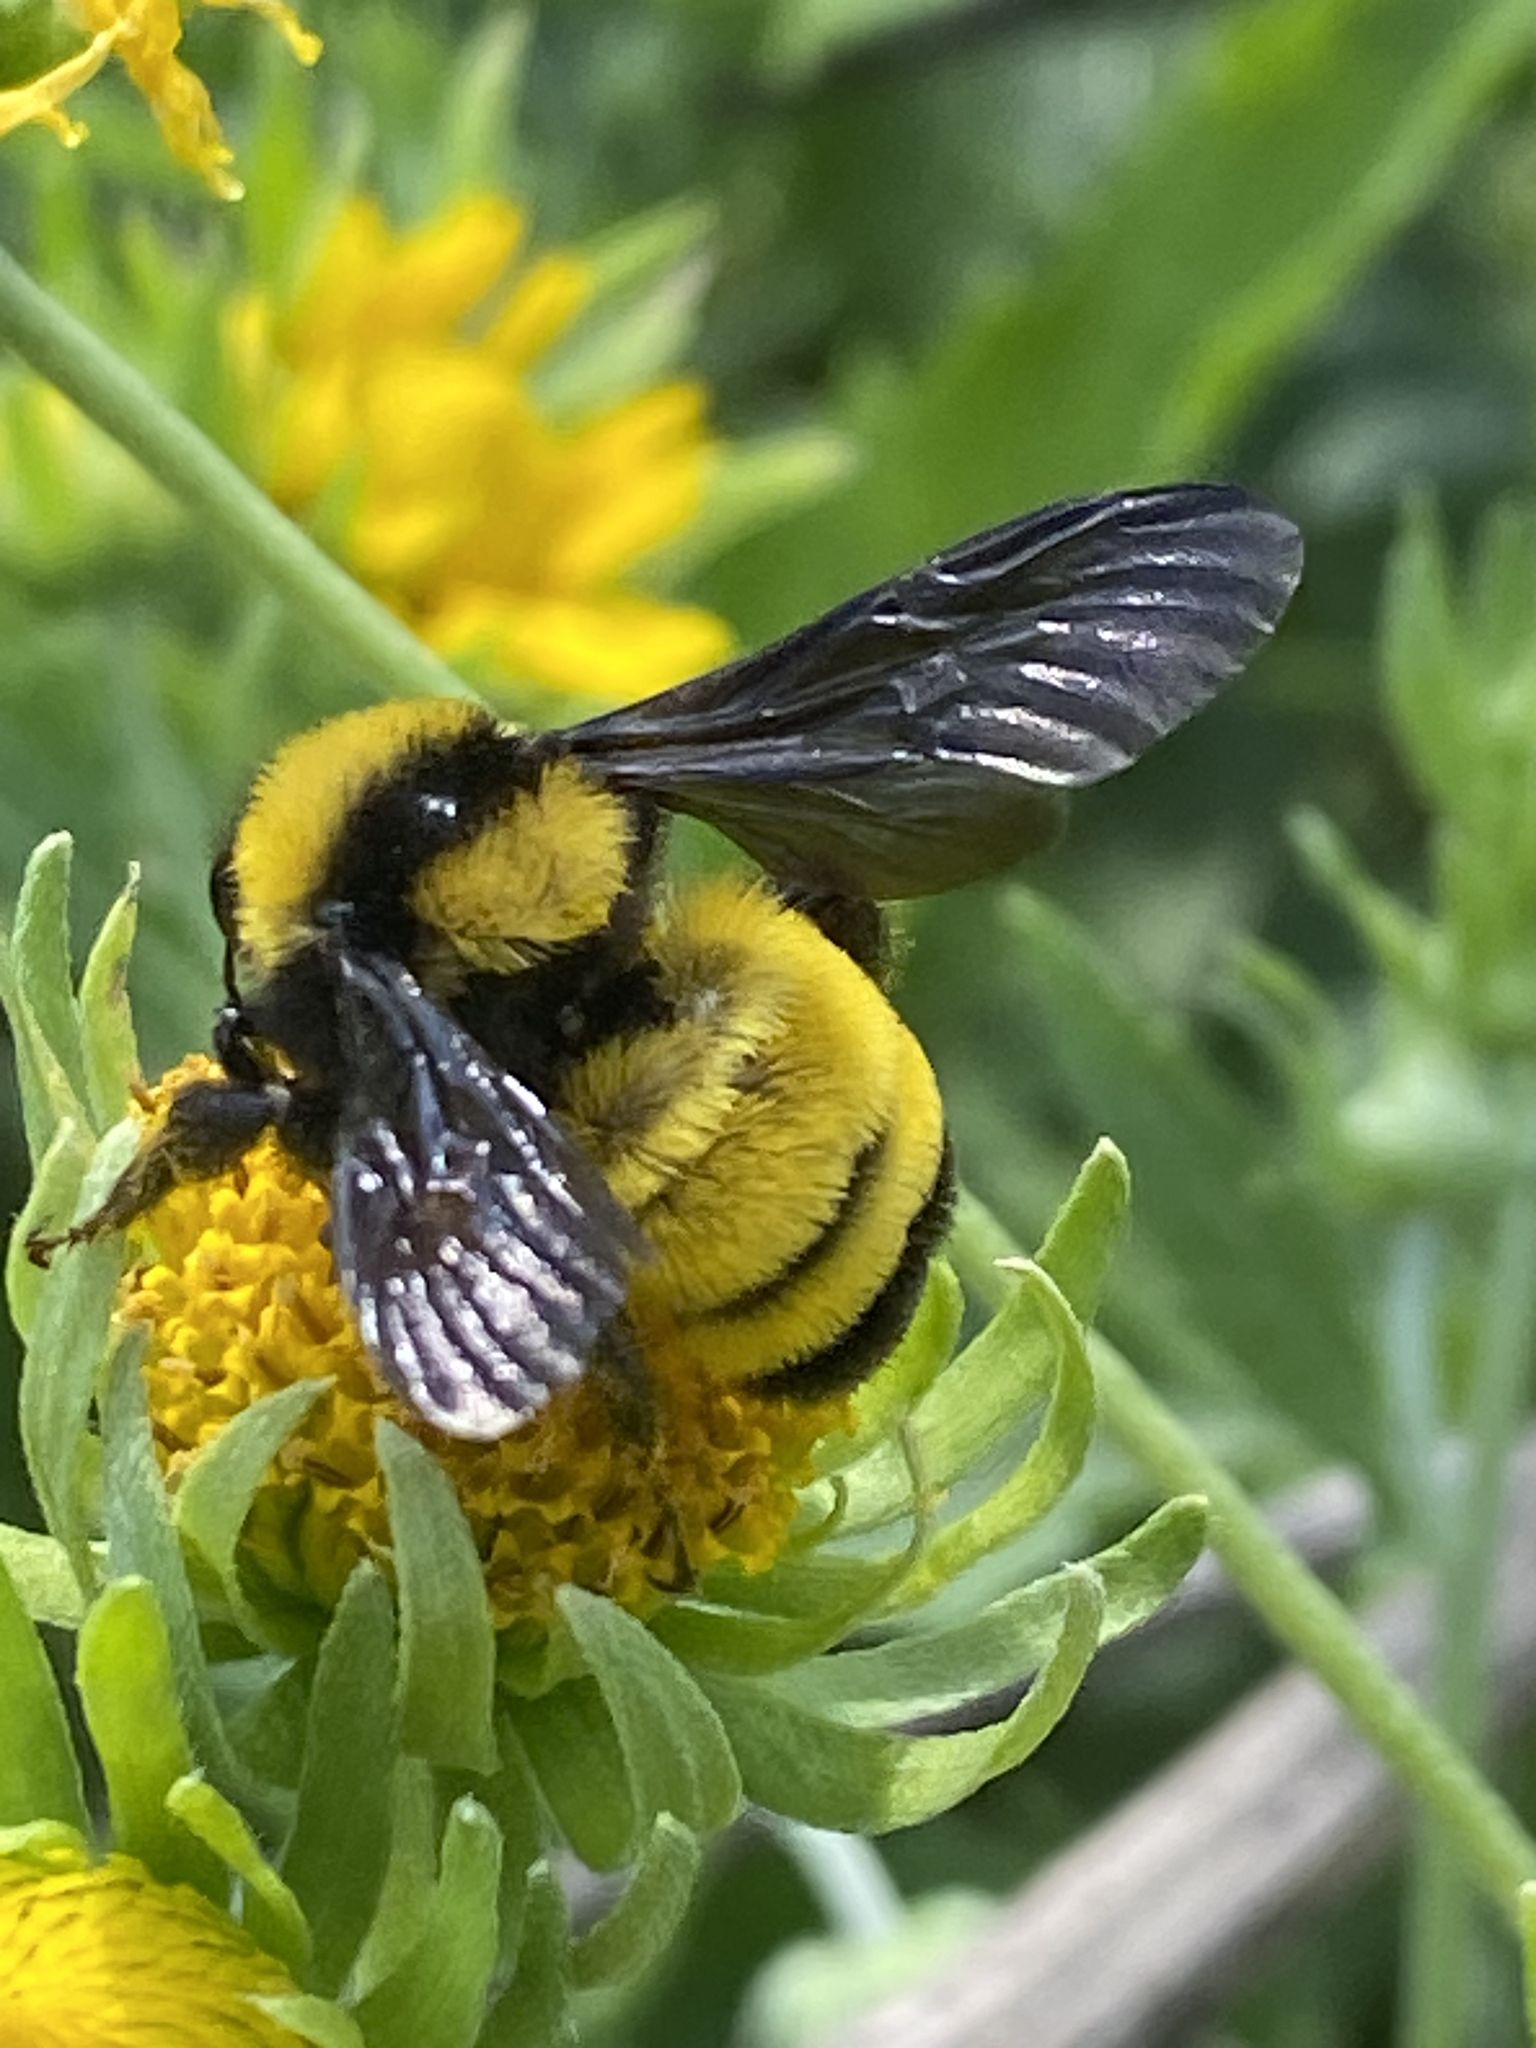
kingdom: Animalia
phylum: Arthropoda
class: Insecta
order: Hymenoptera
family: Apidae
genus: Bombus
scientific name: Bombus sonorus
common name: Sonoran bumble bee
